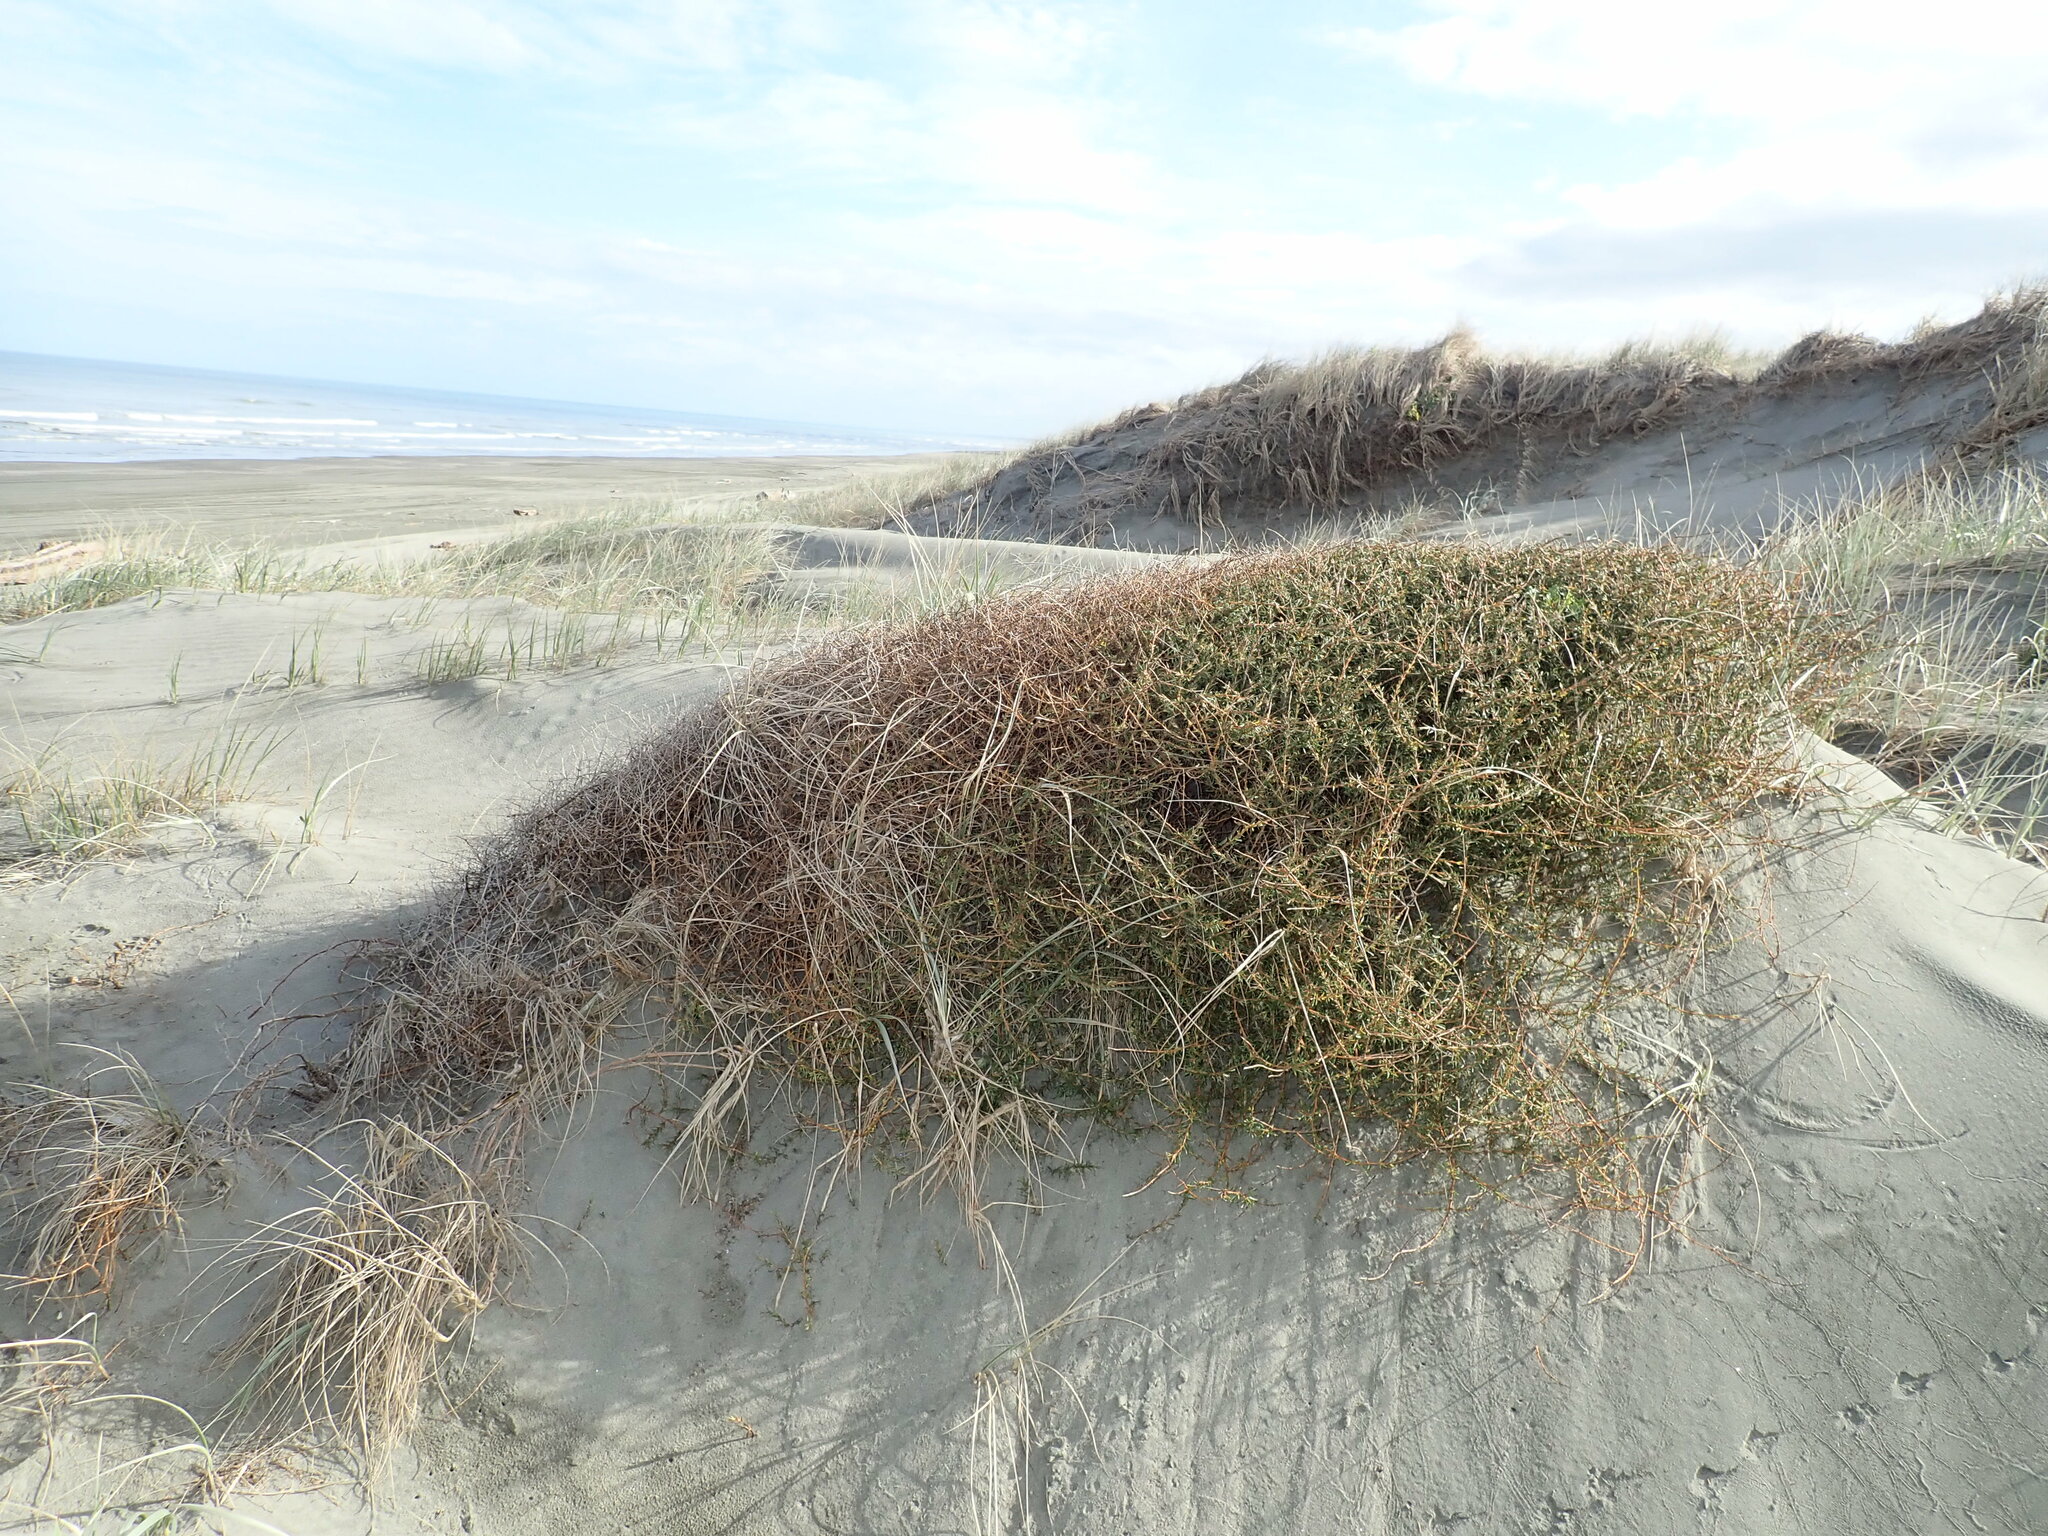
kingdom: Plantae
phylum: Tracheophyta
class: Magnoliopsida
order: Gentianales
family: Rubiaceae
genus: Coprosma
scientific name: Coprosma acerosa
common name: Sand coprosma
